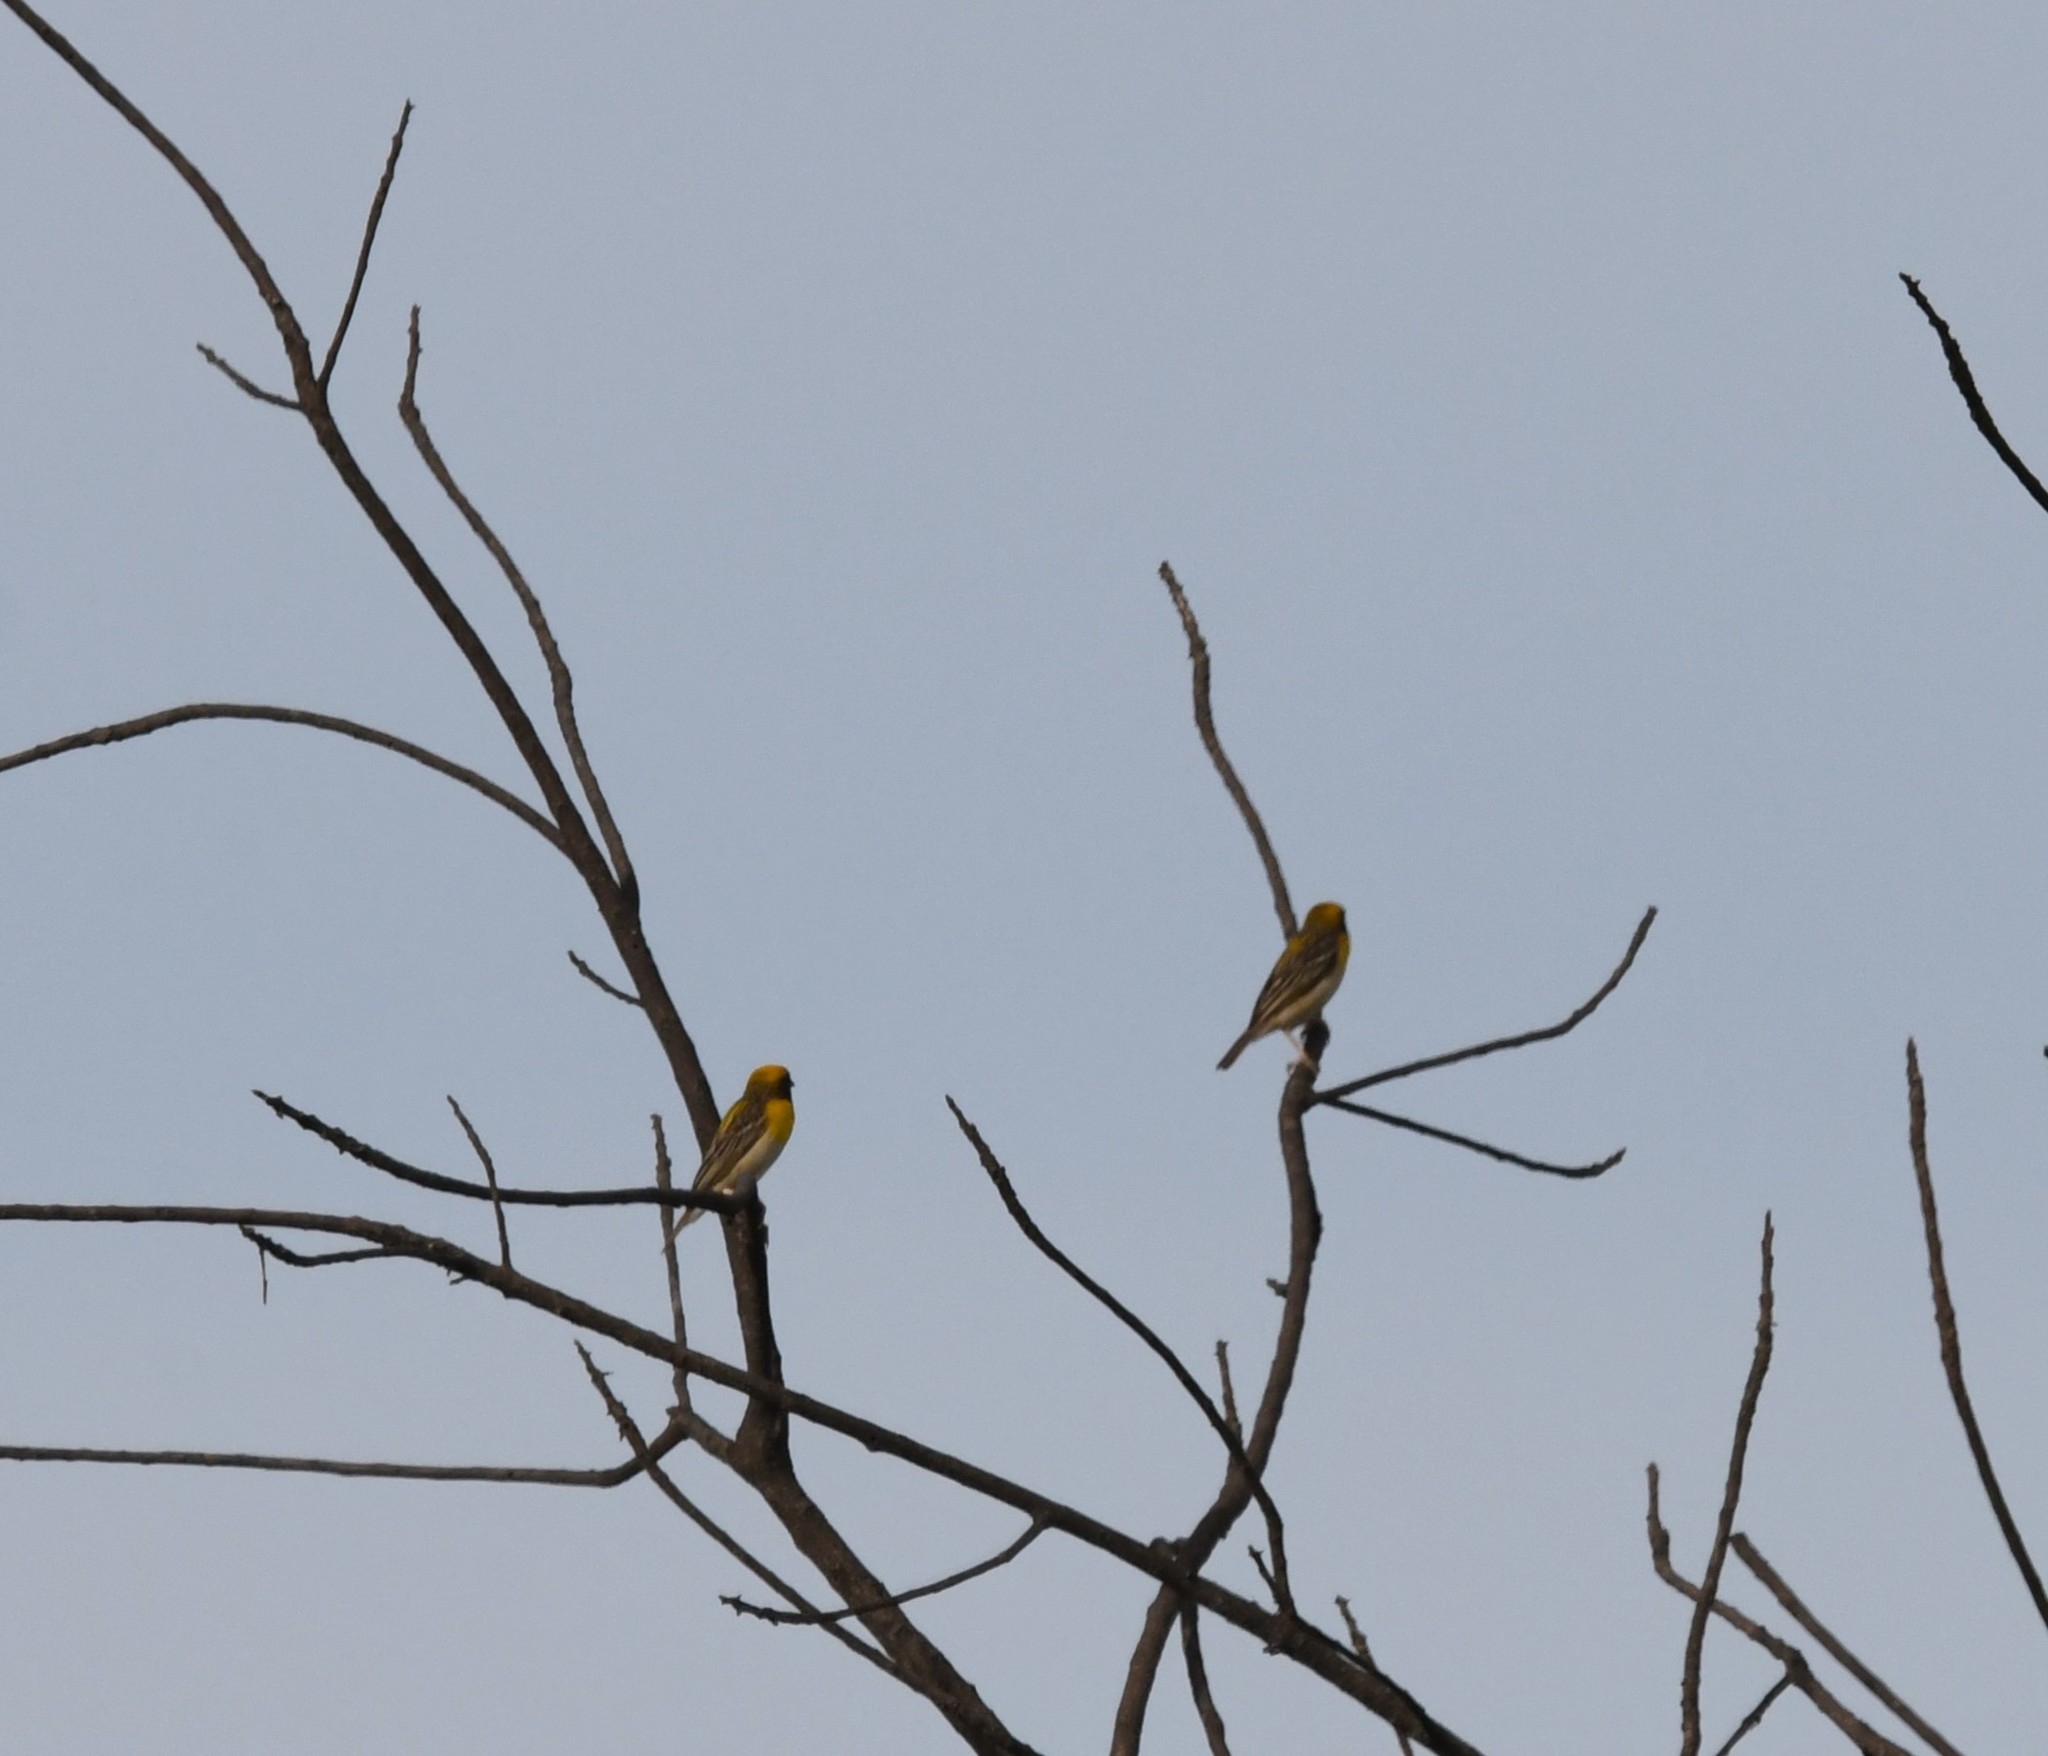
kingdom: Animalia
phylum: Chordata
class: Aves
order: Passeriformes
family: Ploceidae
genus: Ploceus
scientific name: Ploceus philippinus
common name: Baya weaver
